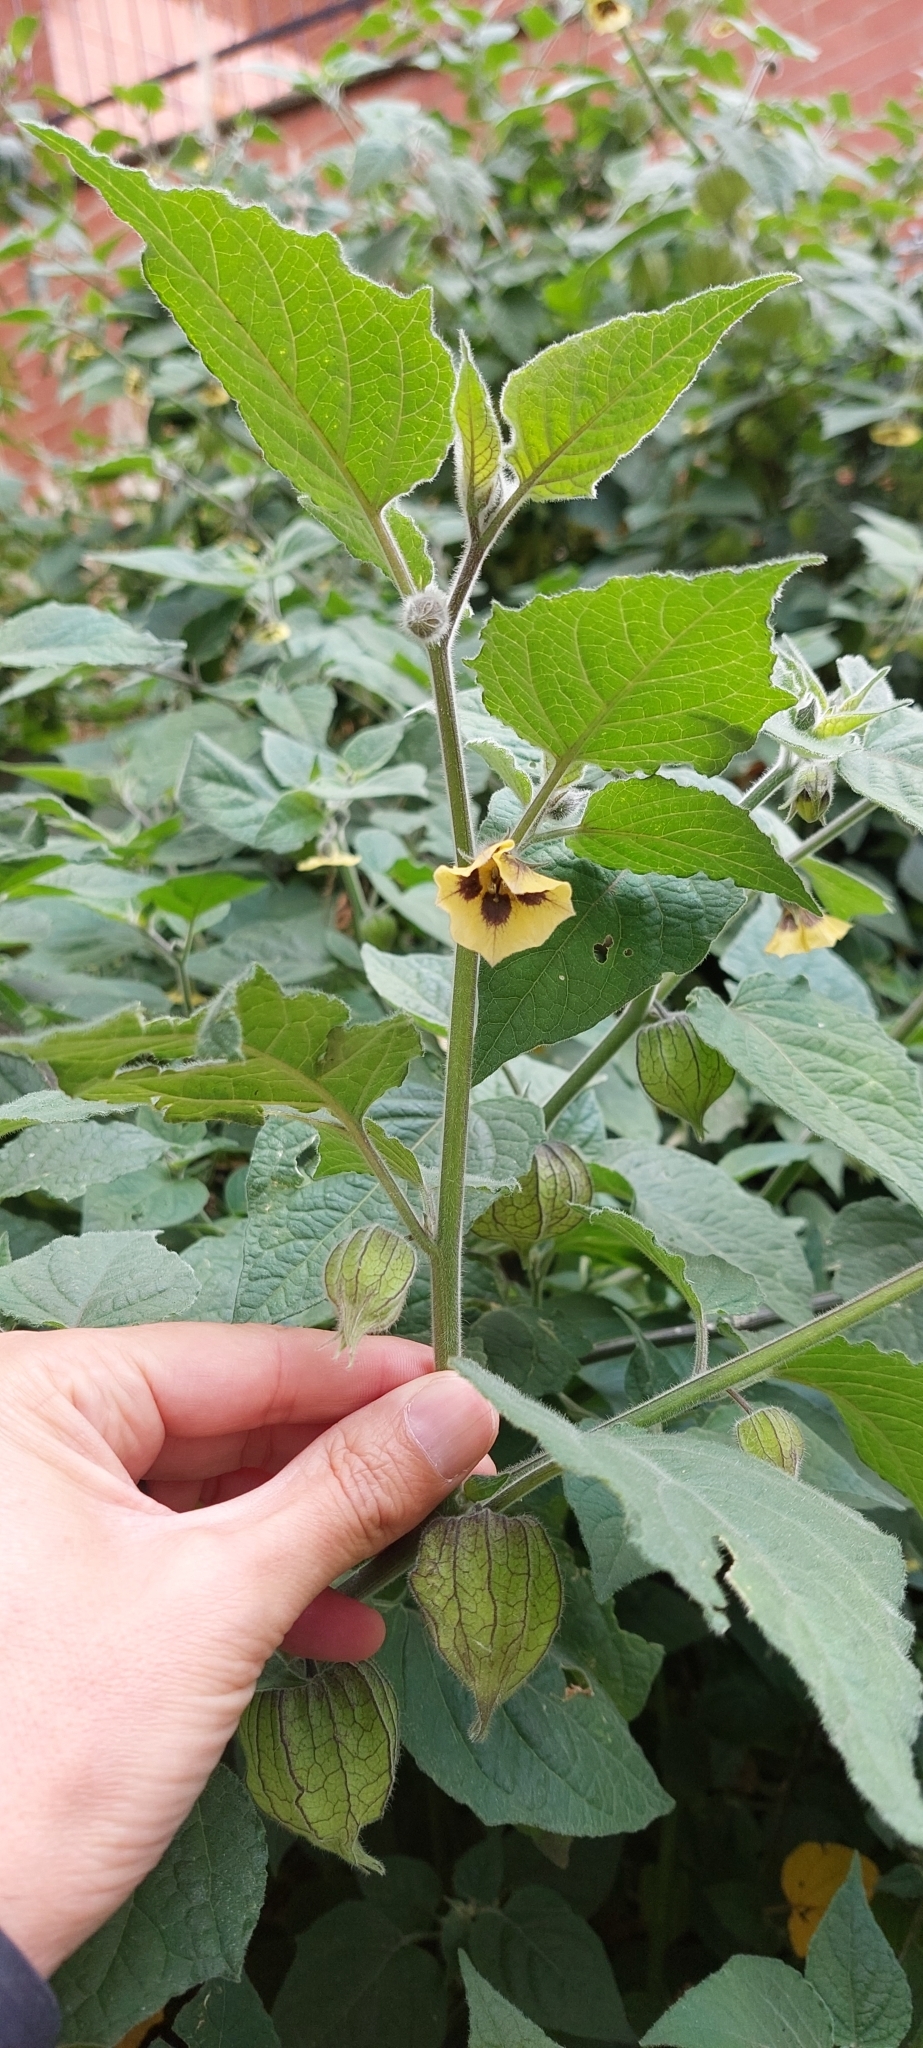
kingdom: Plantae
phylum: Tracheophyta
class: Magnoliopsida
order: Solanales
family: Solanaceae
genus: Physalis
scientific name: Physalis peruviana
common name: Cape-gooseberry
